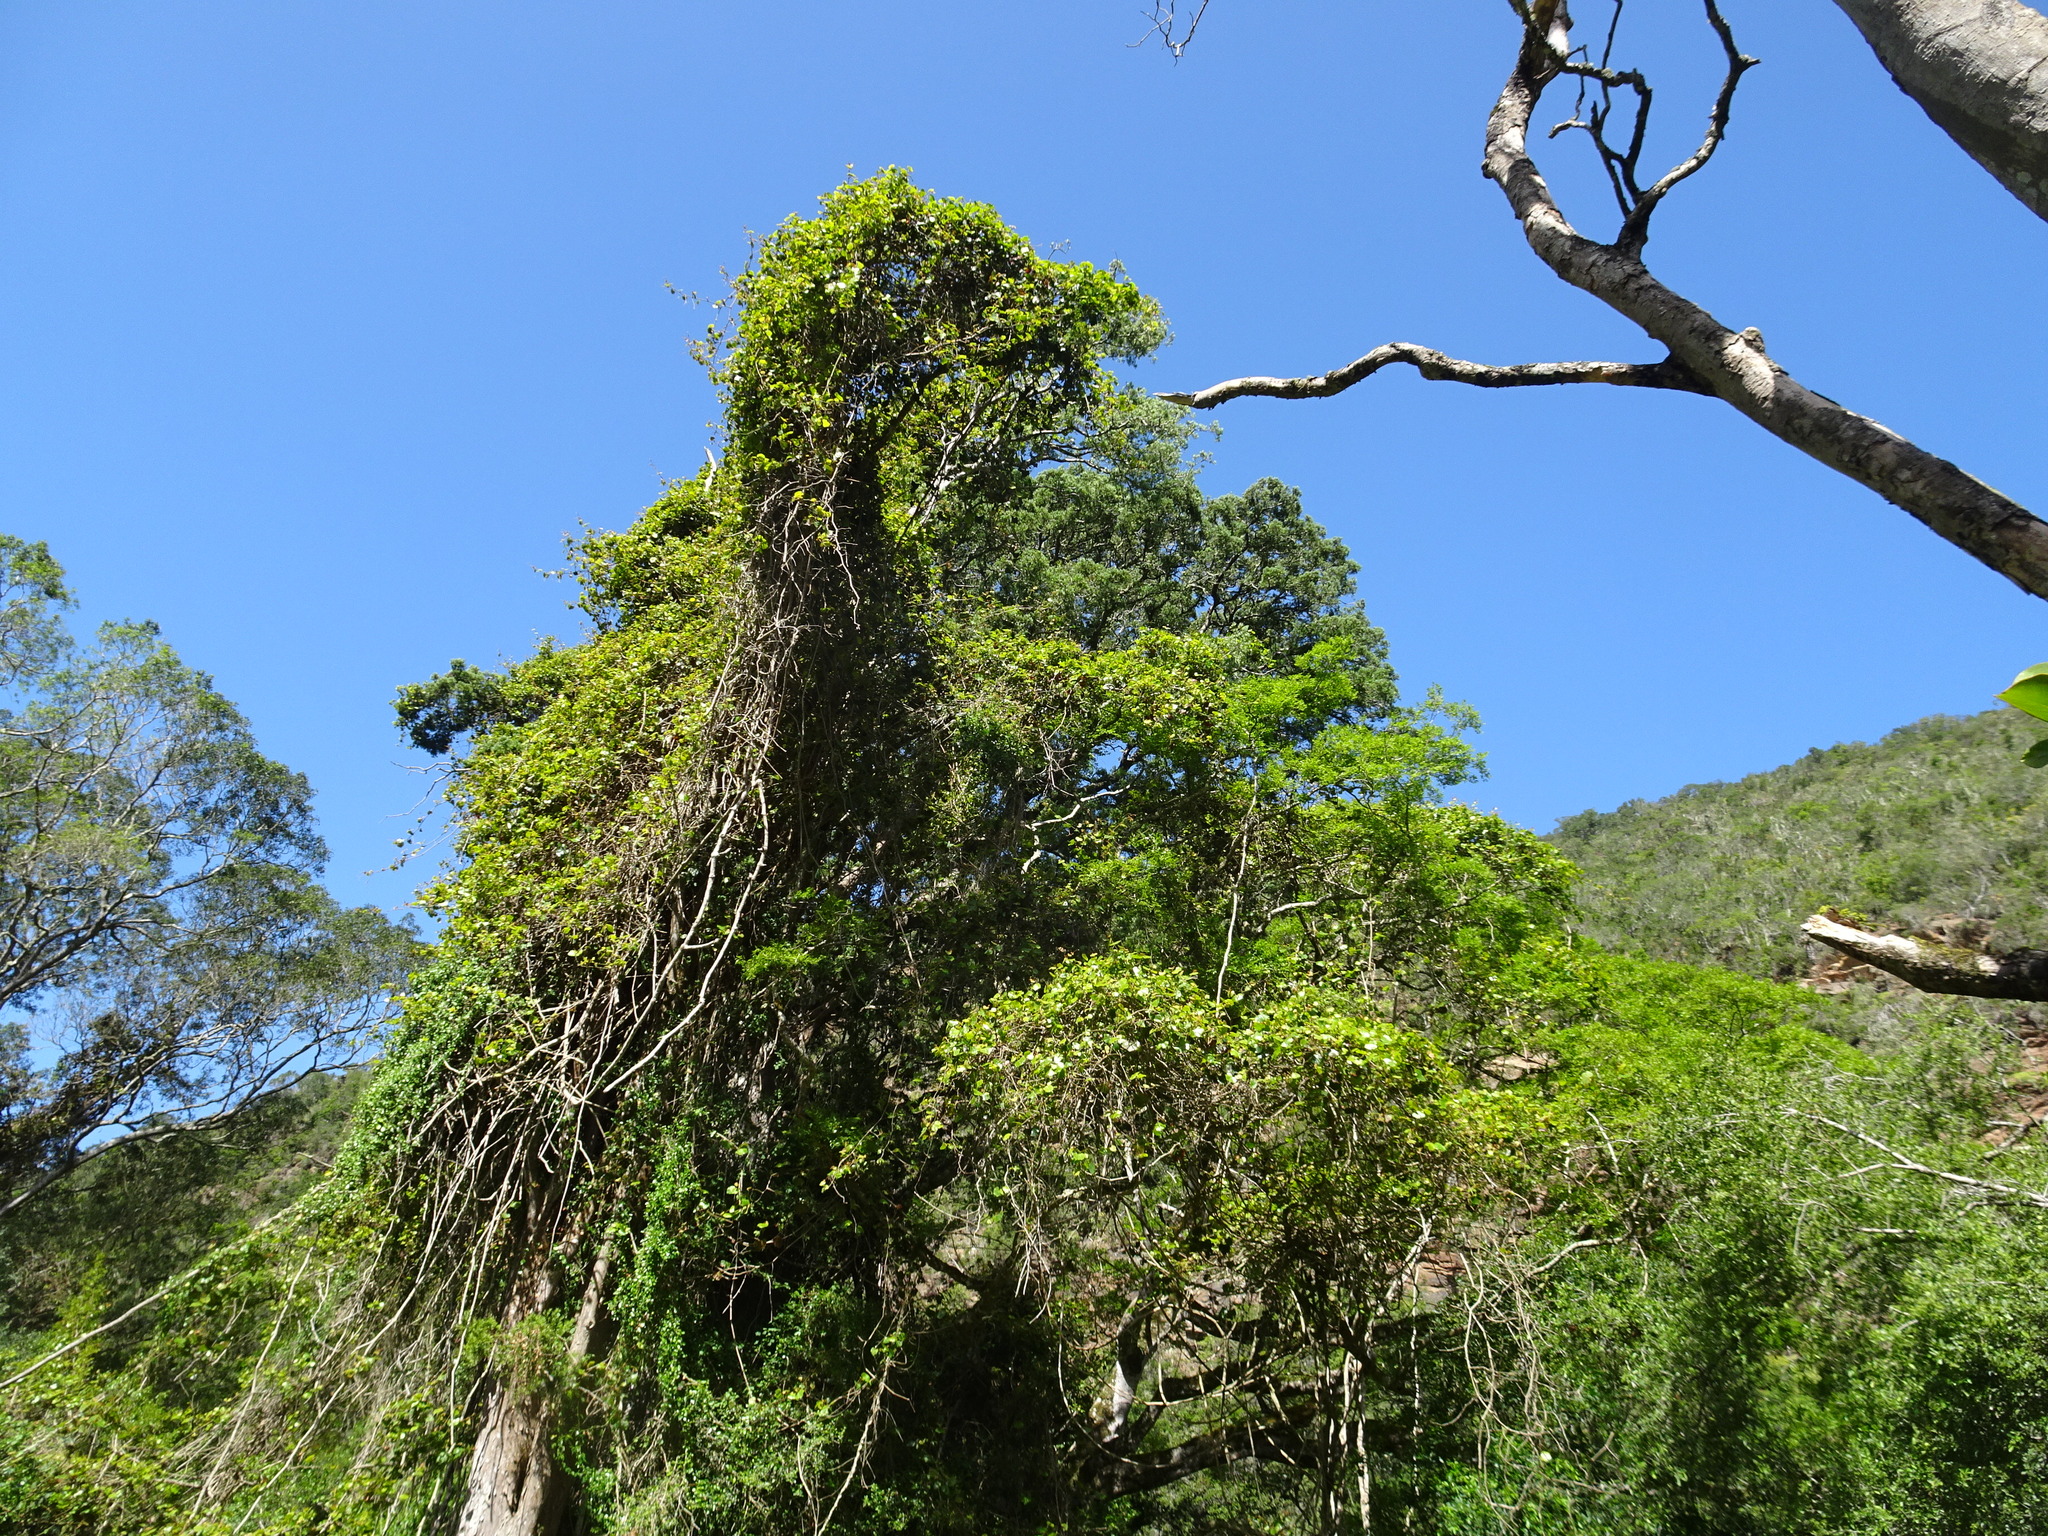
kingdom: Plantae
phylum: Tracheophyta
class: Magnoliopsida
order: Vitales
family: Vitaceae
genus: Rhoicissus
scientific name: Rhoicissus tomentosa
